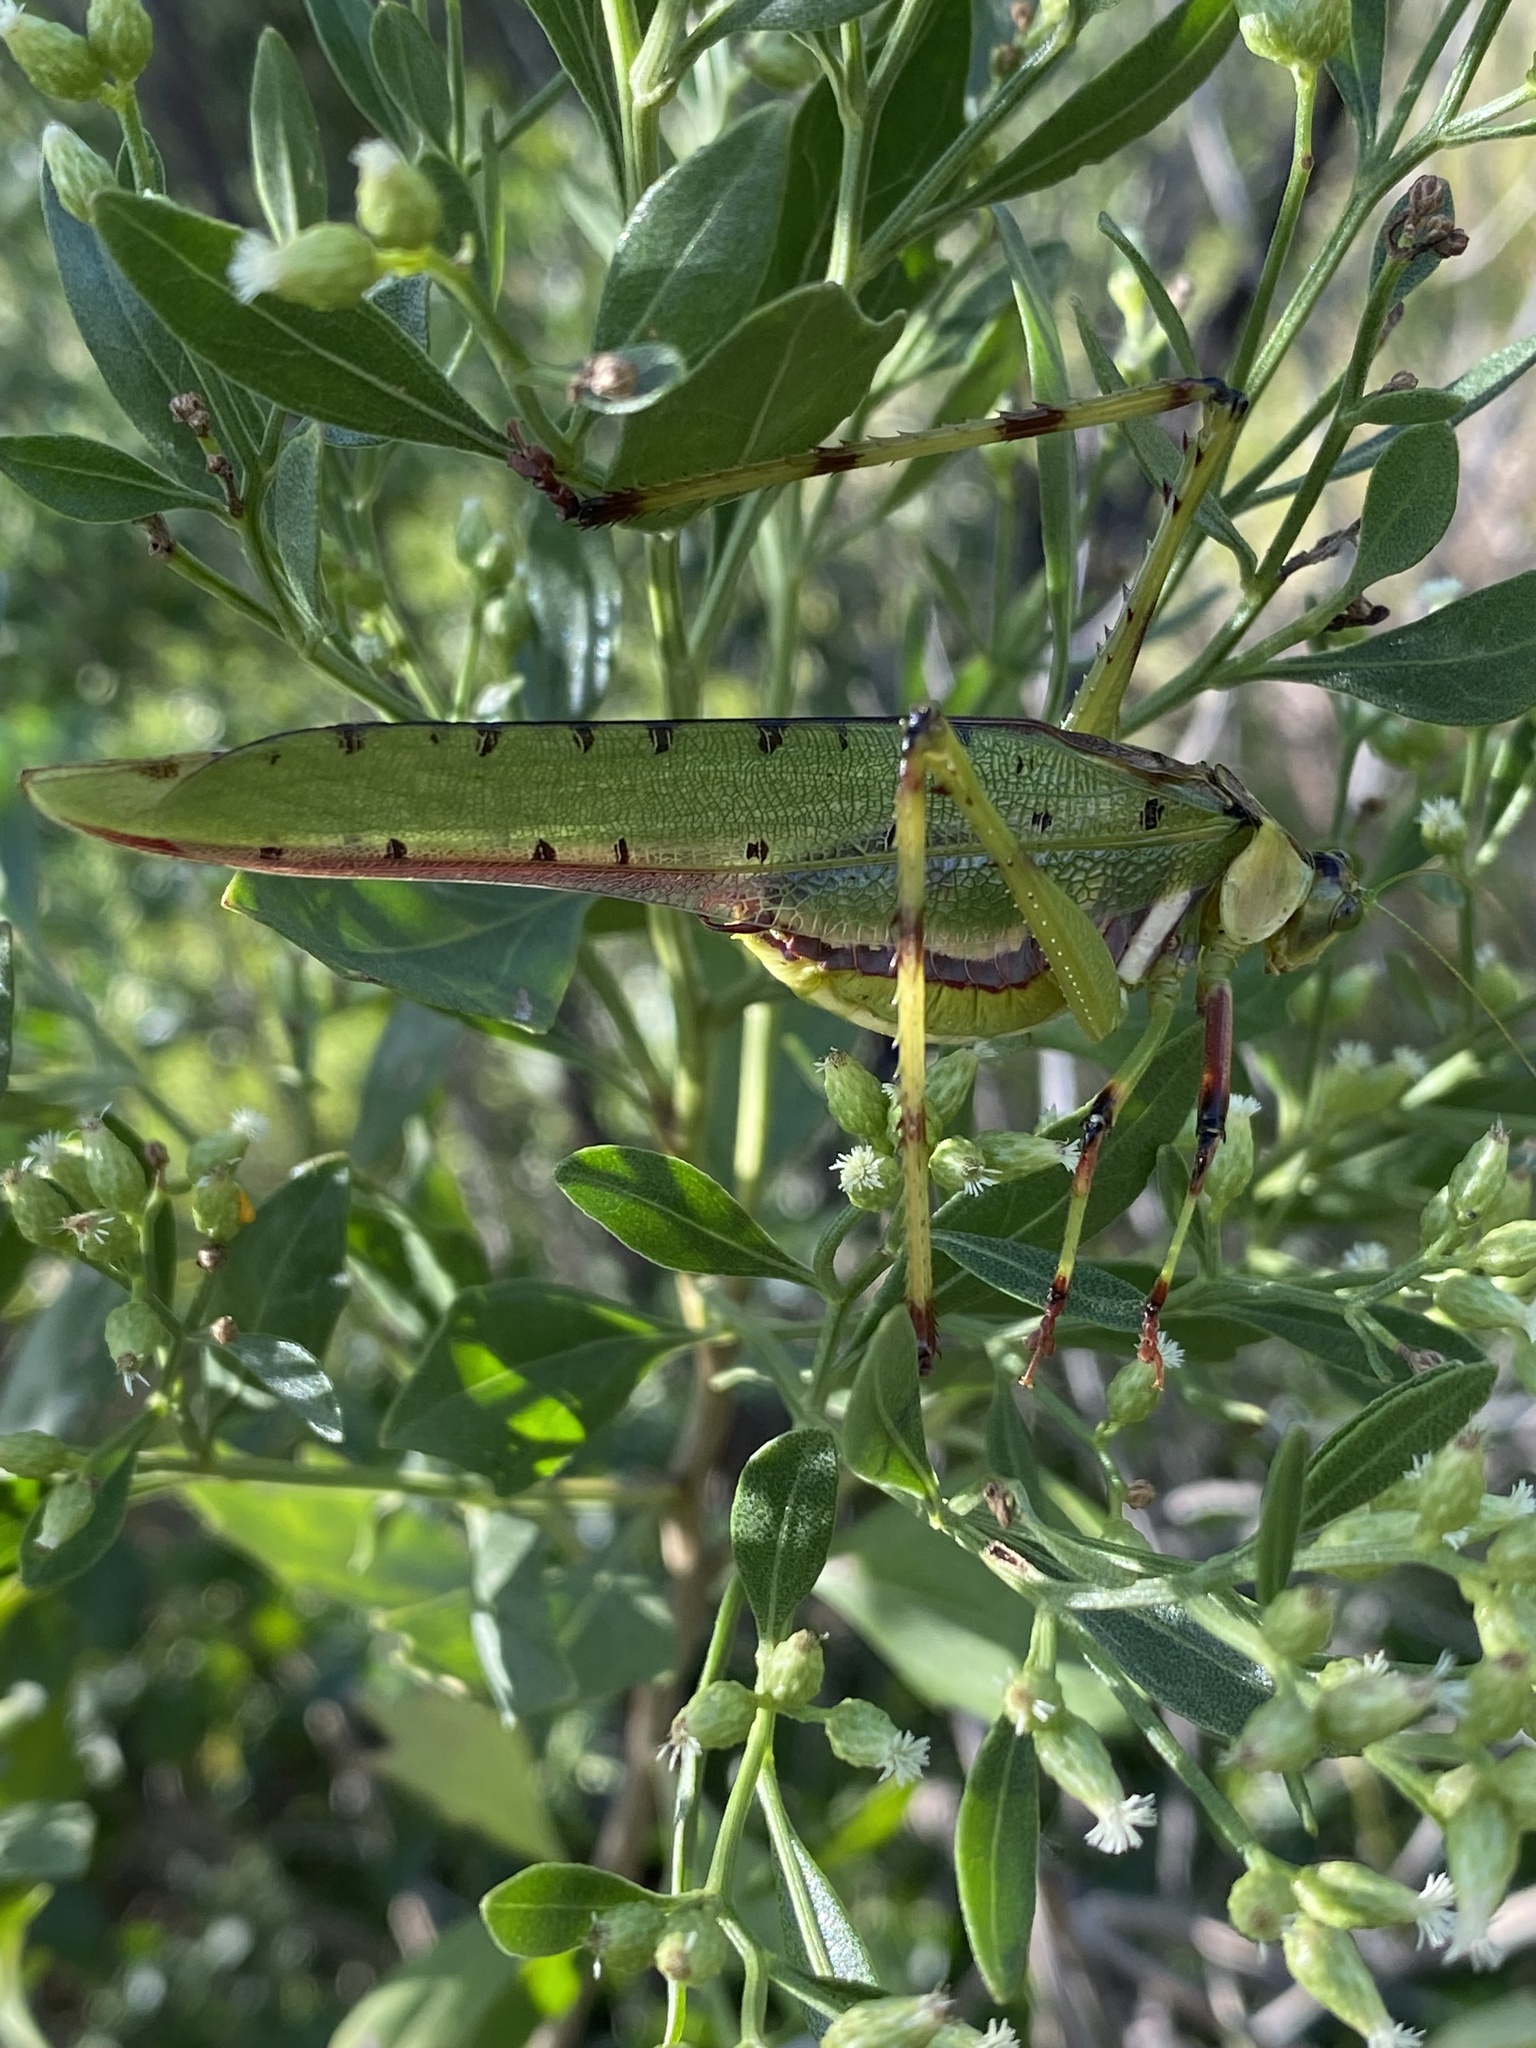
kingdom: Animalia
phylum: Arthropoda
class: Insecta
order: Orthoptera
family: Tettigoniidae
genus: Ephippitytha
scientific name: Ephippitytha trigintiduoguttata
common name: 32-spotted katydid
